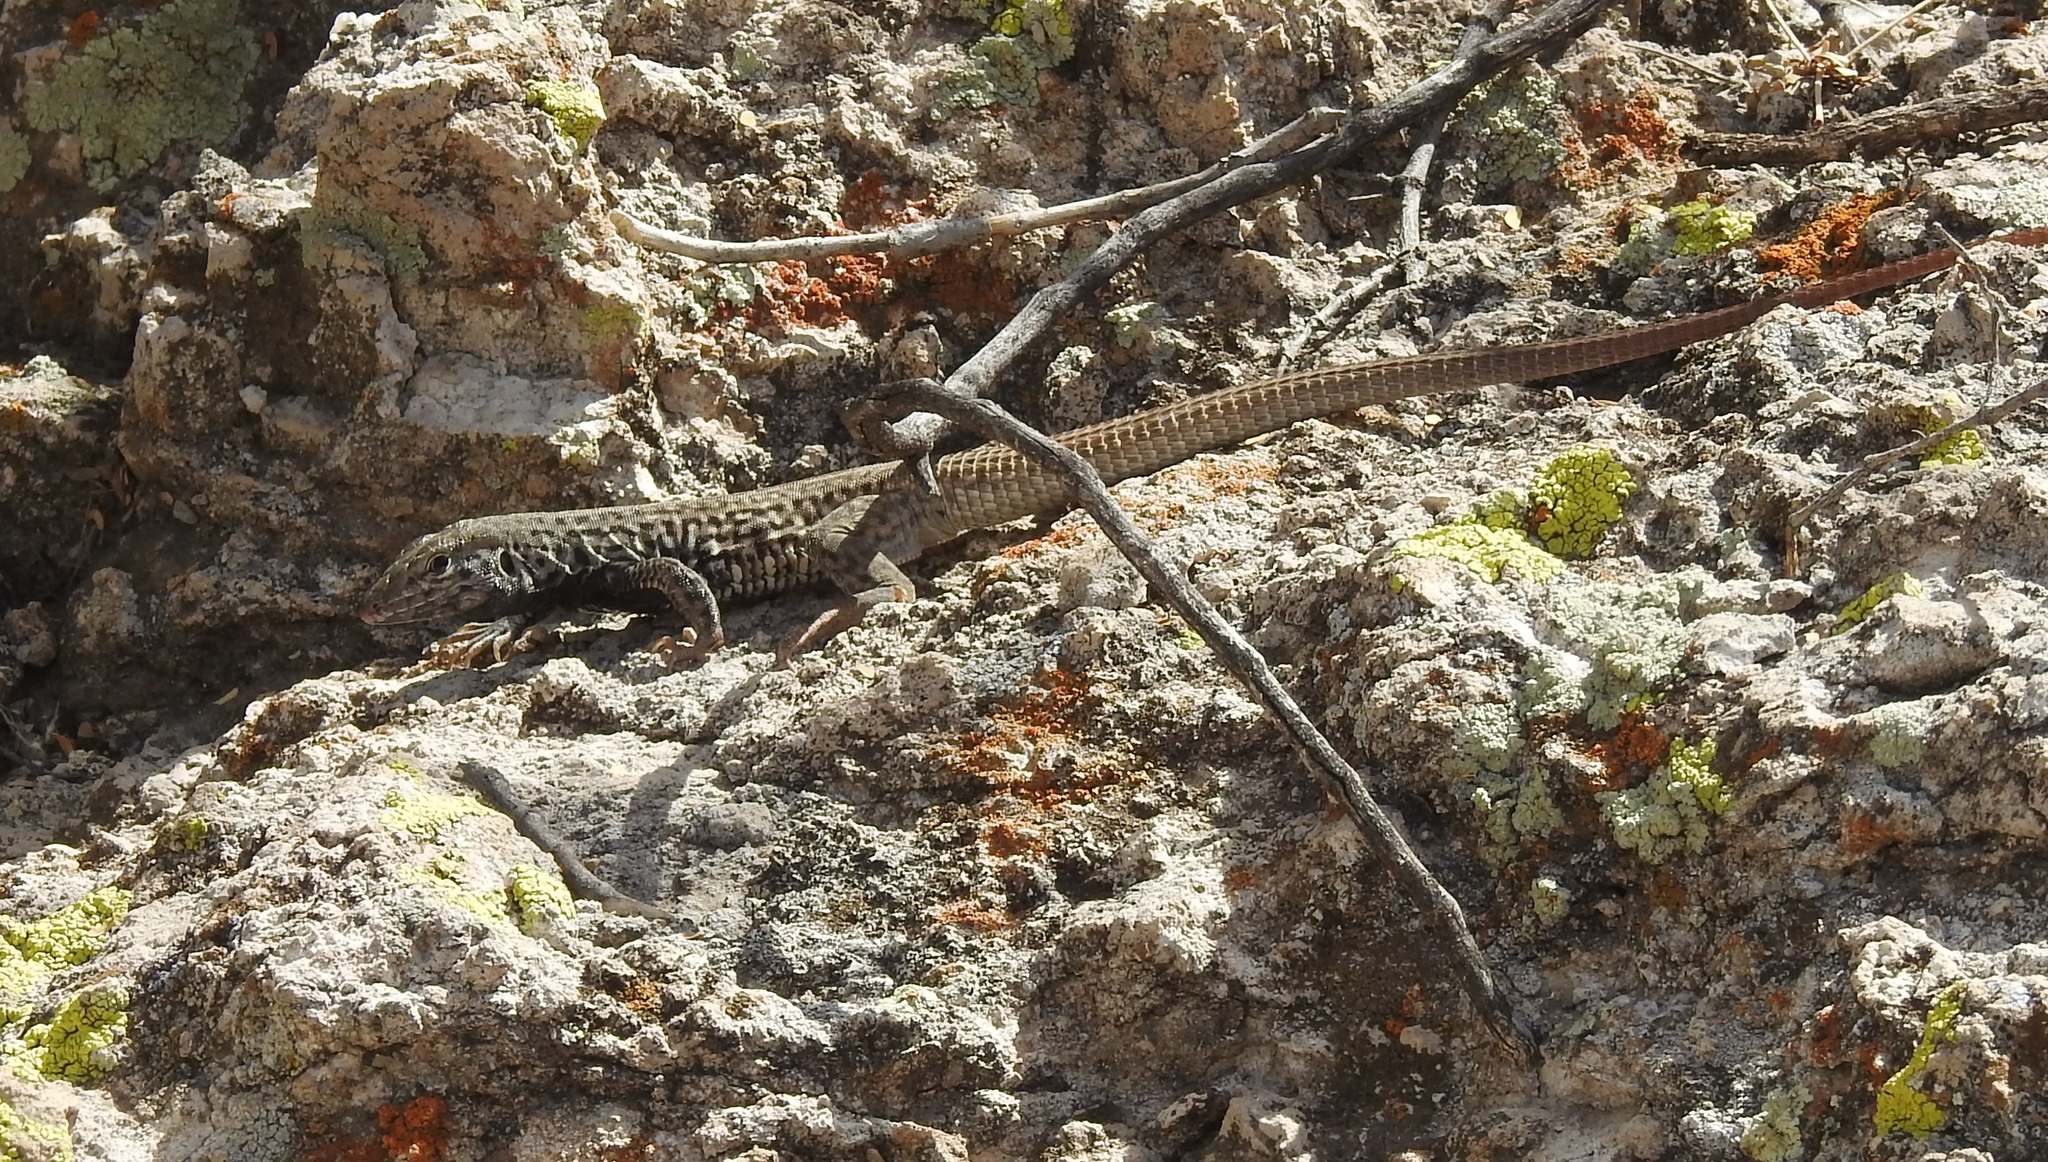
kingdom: Animalia
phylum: Chordata
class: Squamata
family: Teiidae
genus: Aspidoscelis
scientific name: Aspidoscelis tigris
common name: Tiger whiptail
